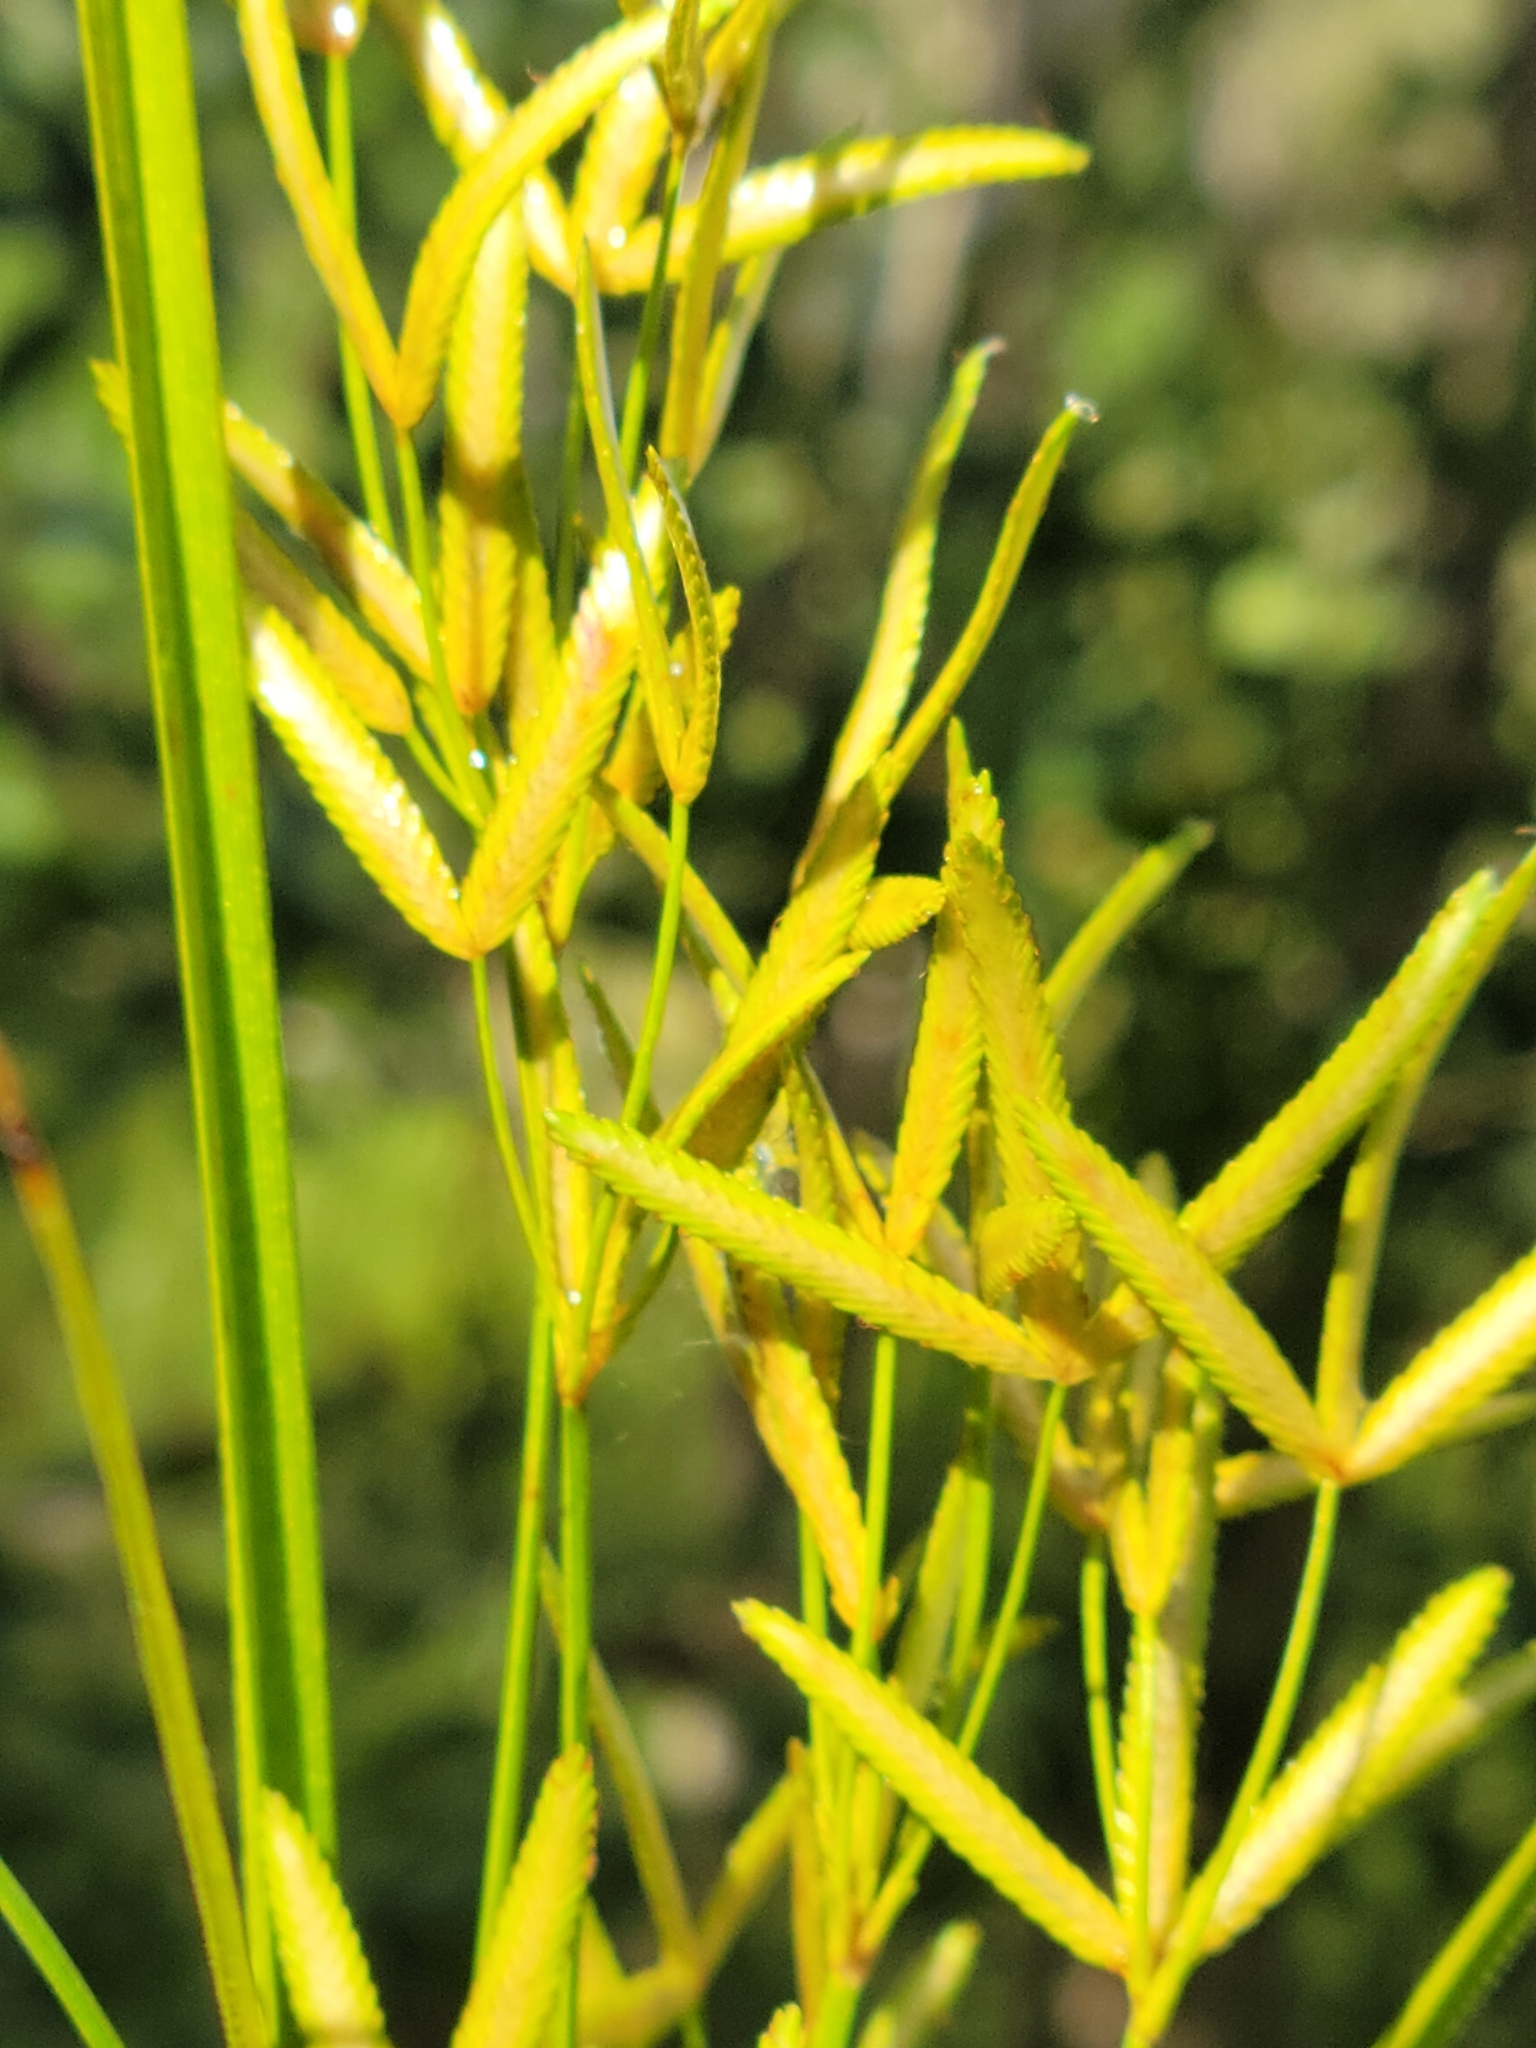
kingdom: Plantae
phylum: Tracheophyta
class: Liliopsida
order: Poales
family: Cyperaceae
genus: Cyperus
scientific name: Cyperus lecontei
